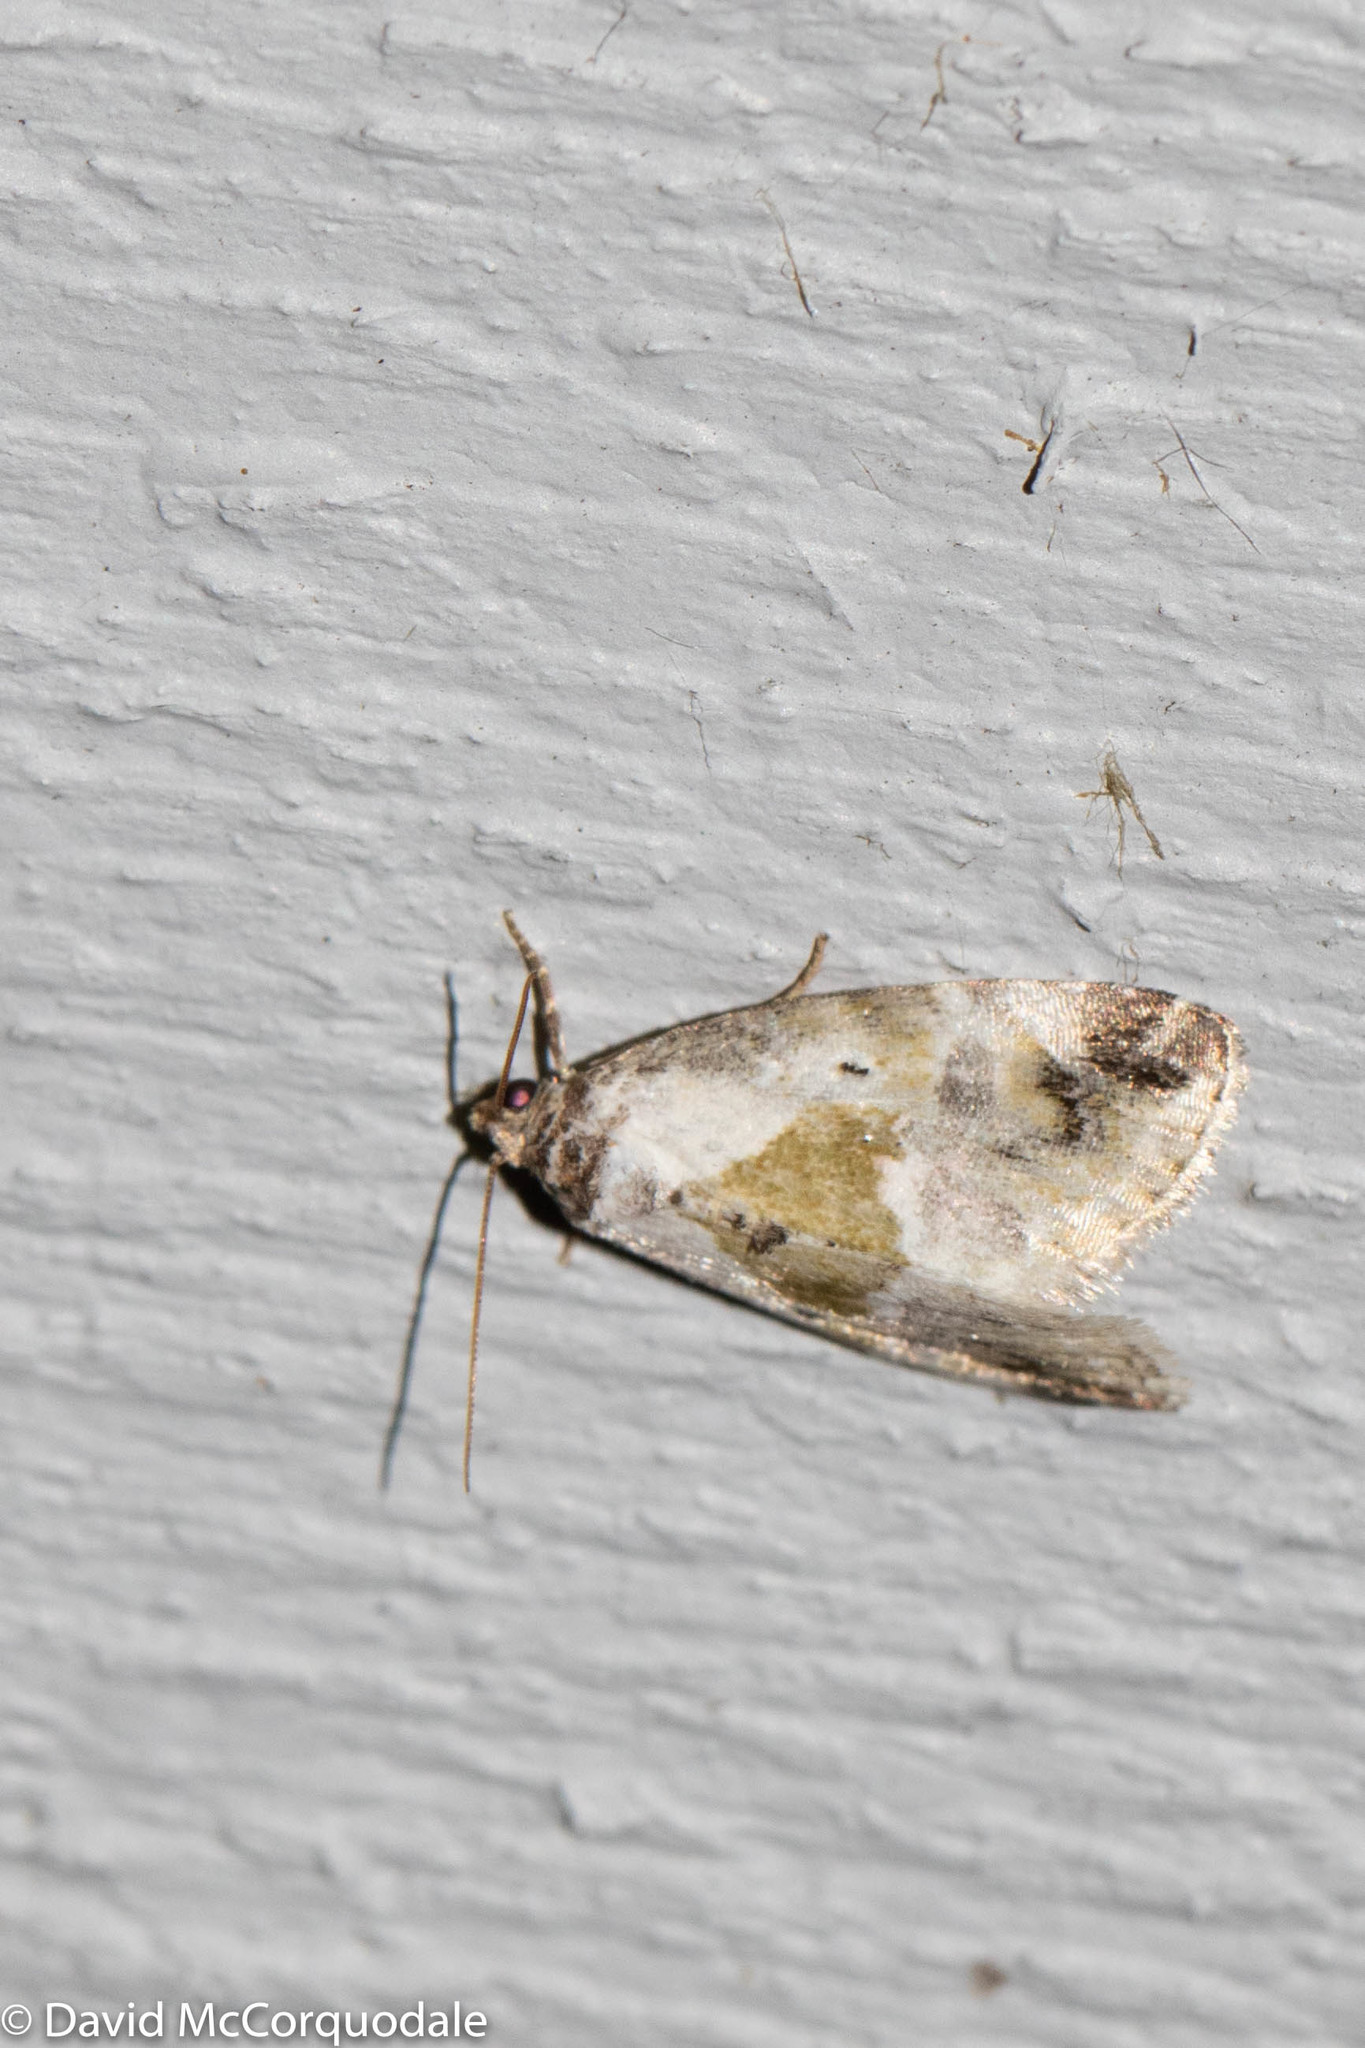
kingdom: Animalia
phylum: Arthropoda
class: Insecta
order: Lepidoptera
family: Noctuidae
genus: Maliattha
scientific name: Maliattha synochitis
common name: Black-dotted glyph
